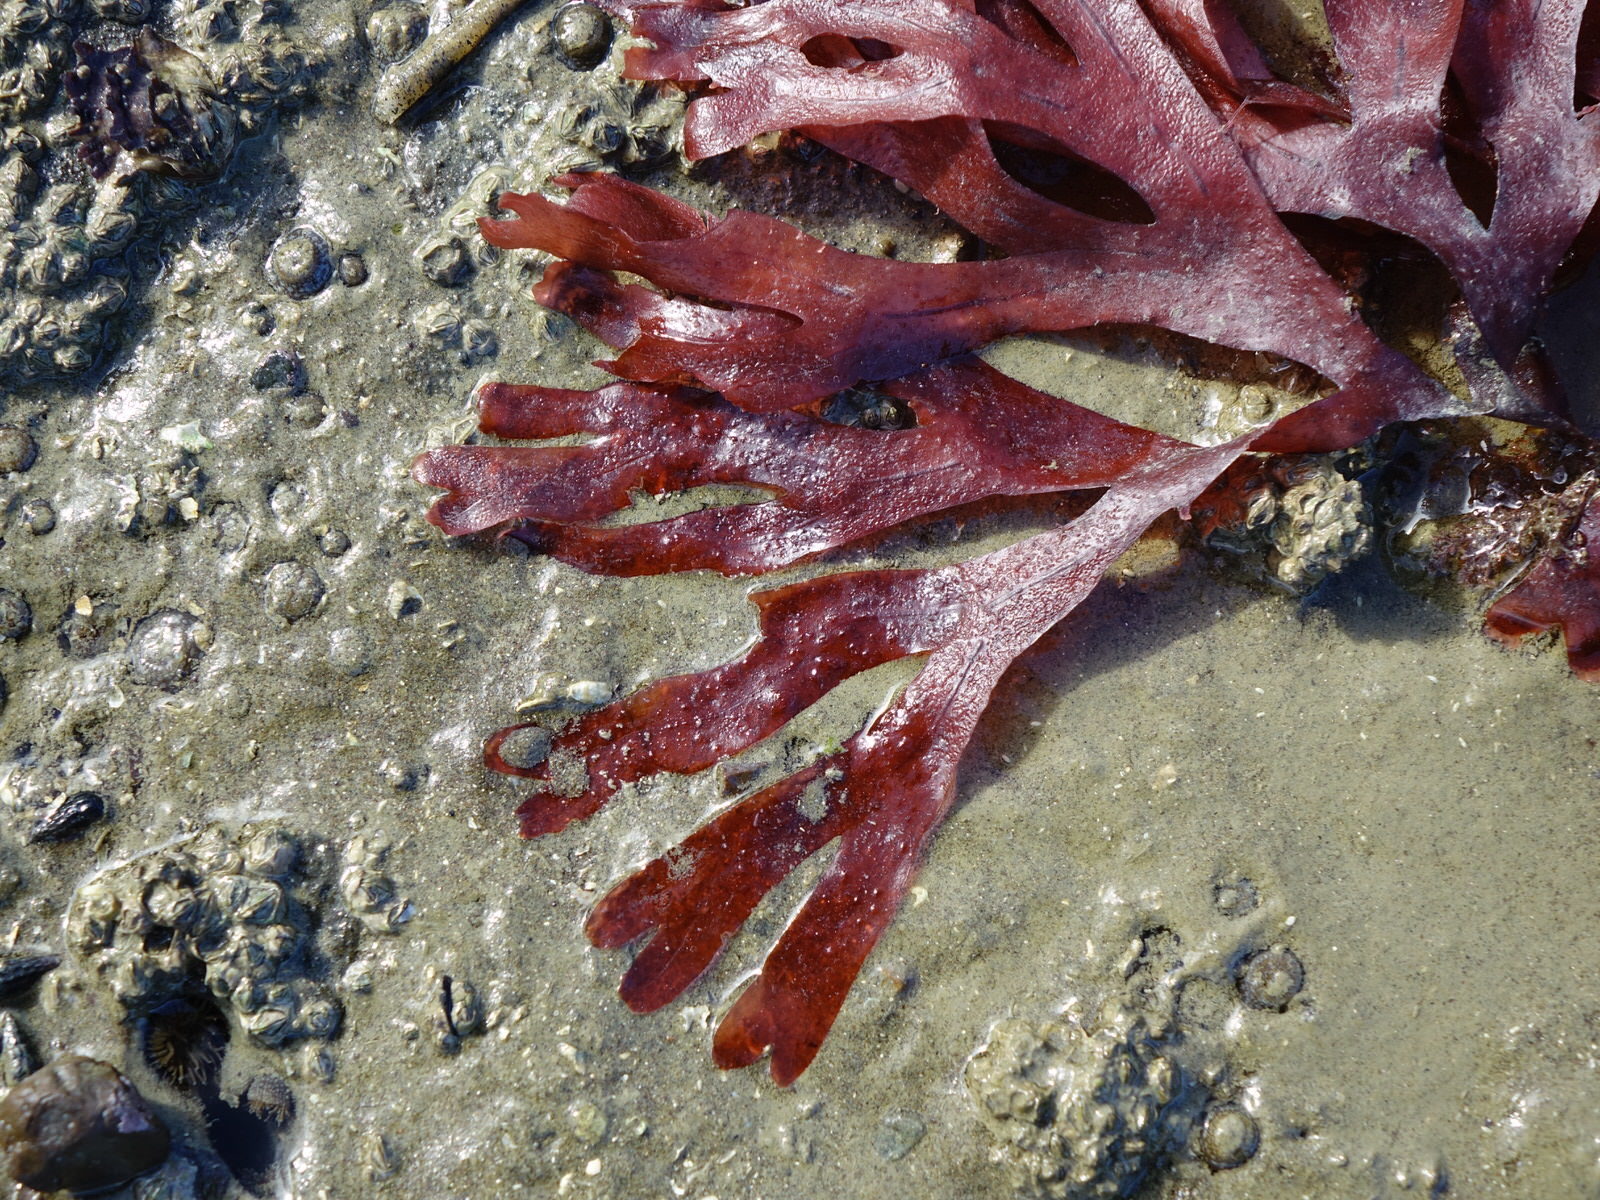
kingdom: Plantae
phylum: Rhodophyta
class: Florideophyceae
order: Gigartinales
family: Phyllophoraceae
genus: Stenogramma
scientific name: Stenogramma interruptum
